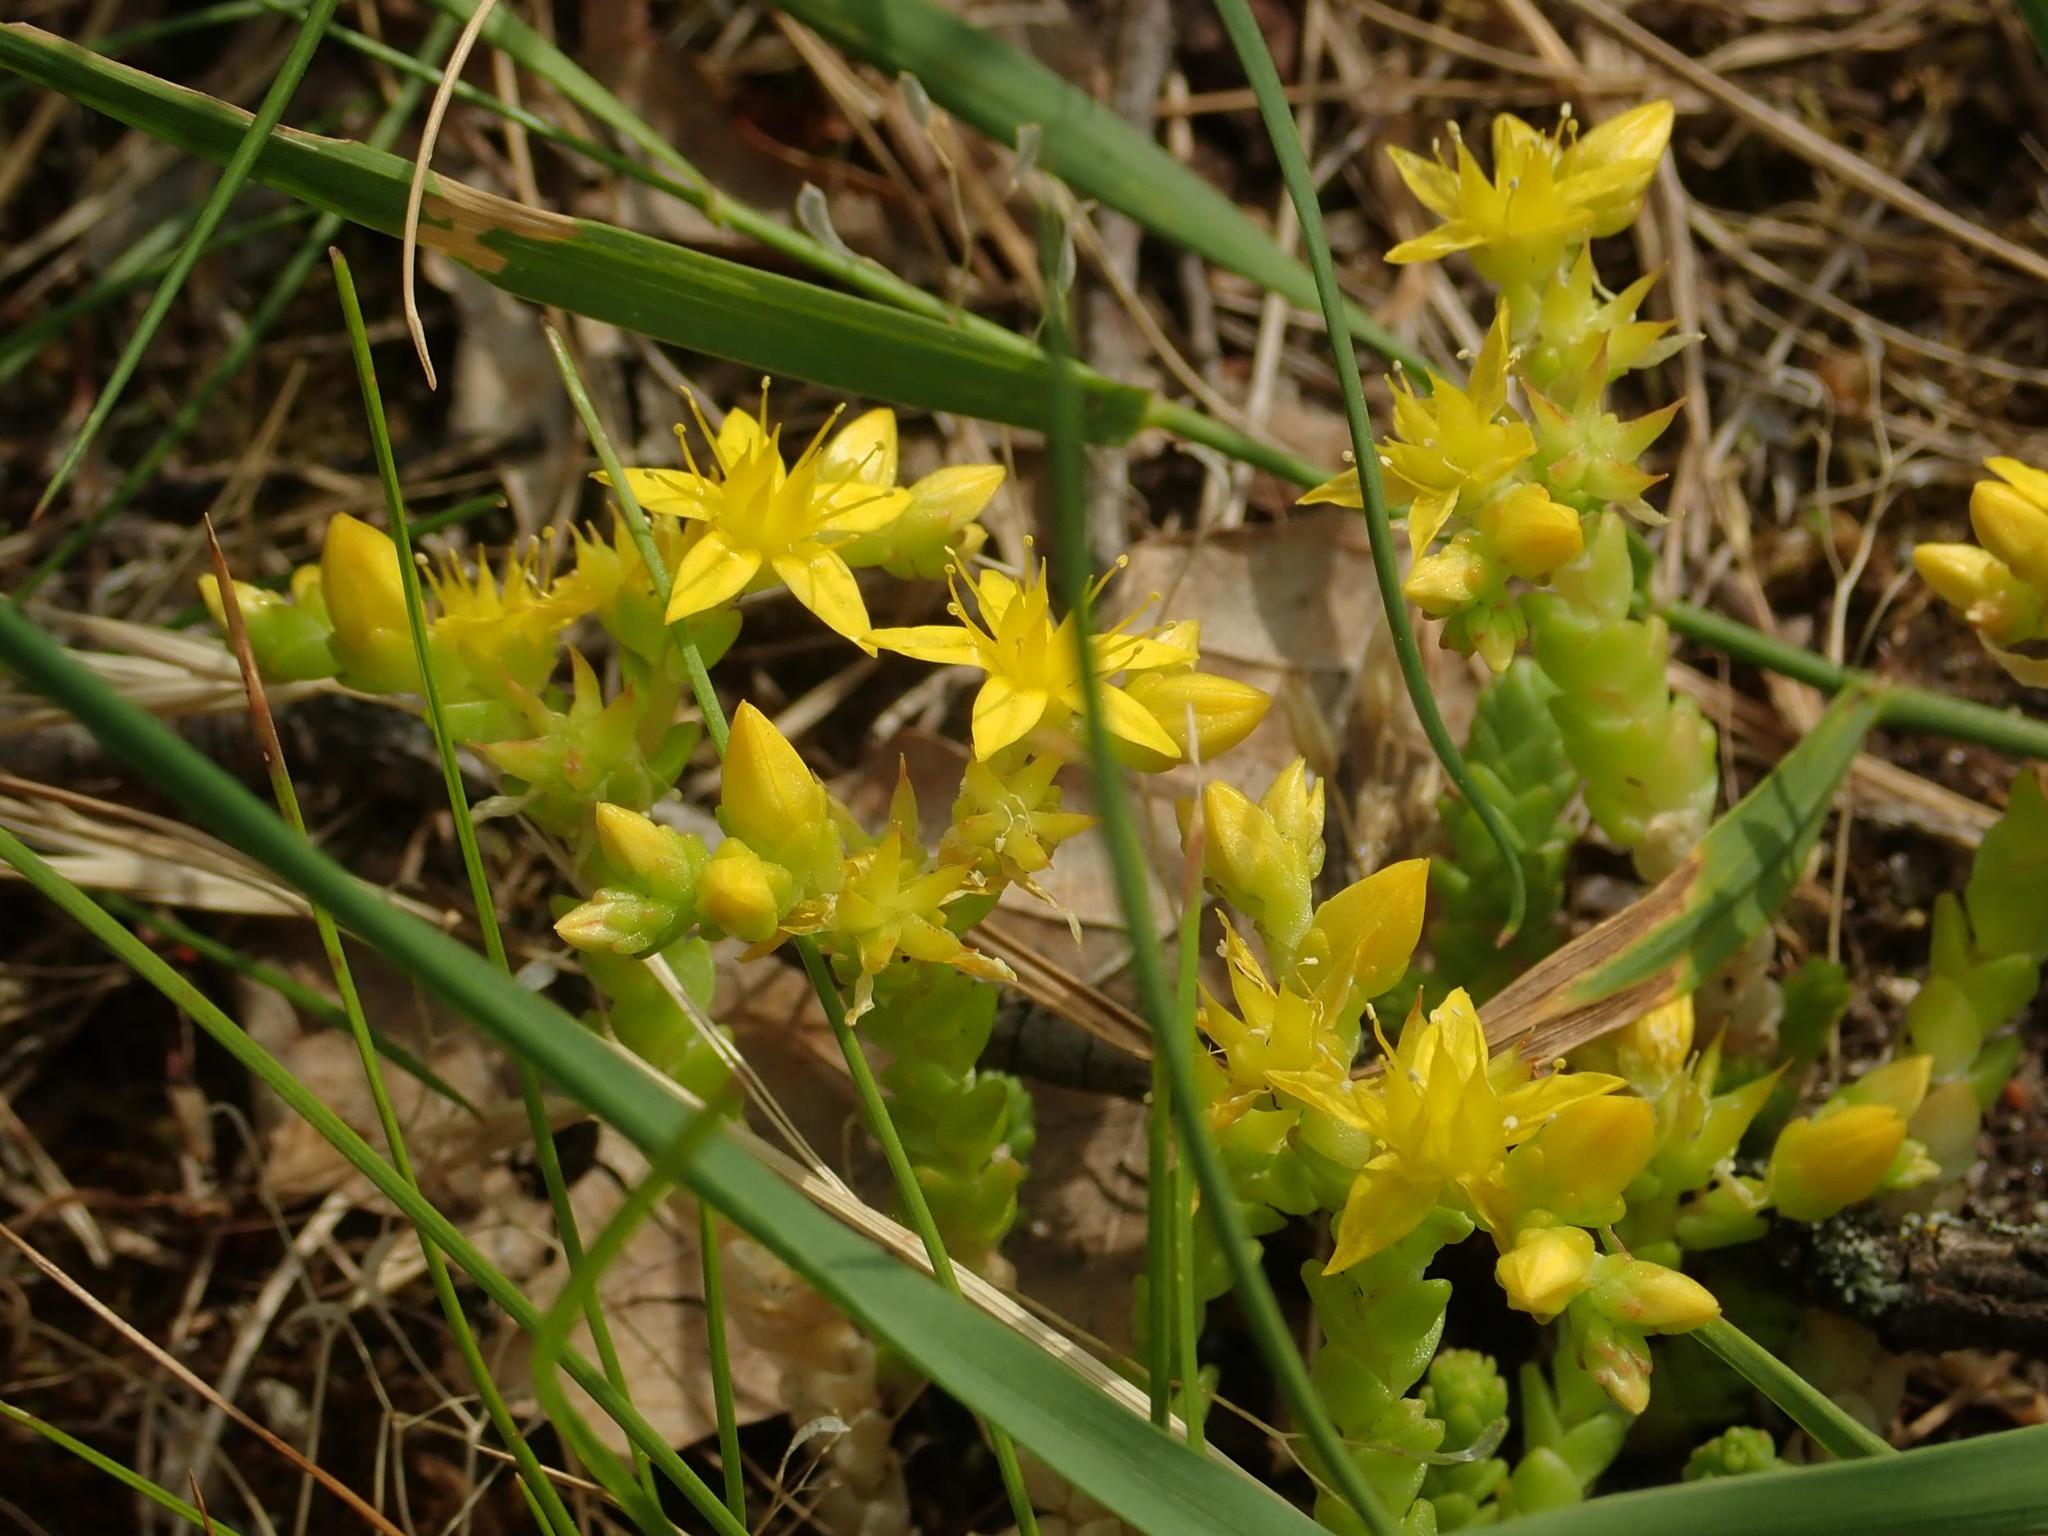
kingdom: Plantae
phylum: Tracheophyta
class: Magnoliopsida
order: Saxifragales
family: Crassulaceae
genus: Sedum
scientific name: Sedum acre
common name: Biting stonecrop
